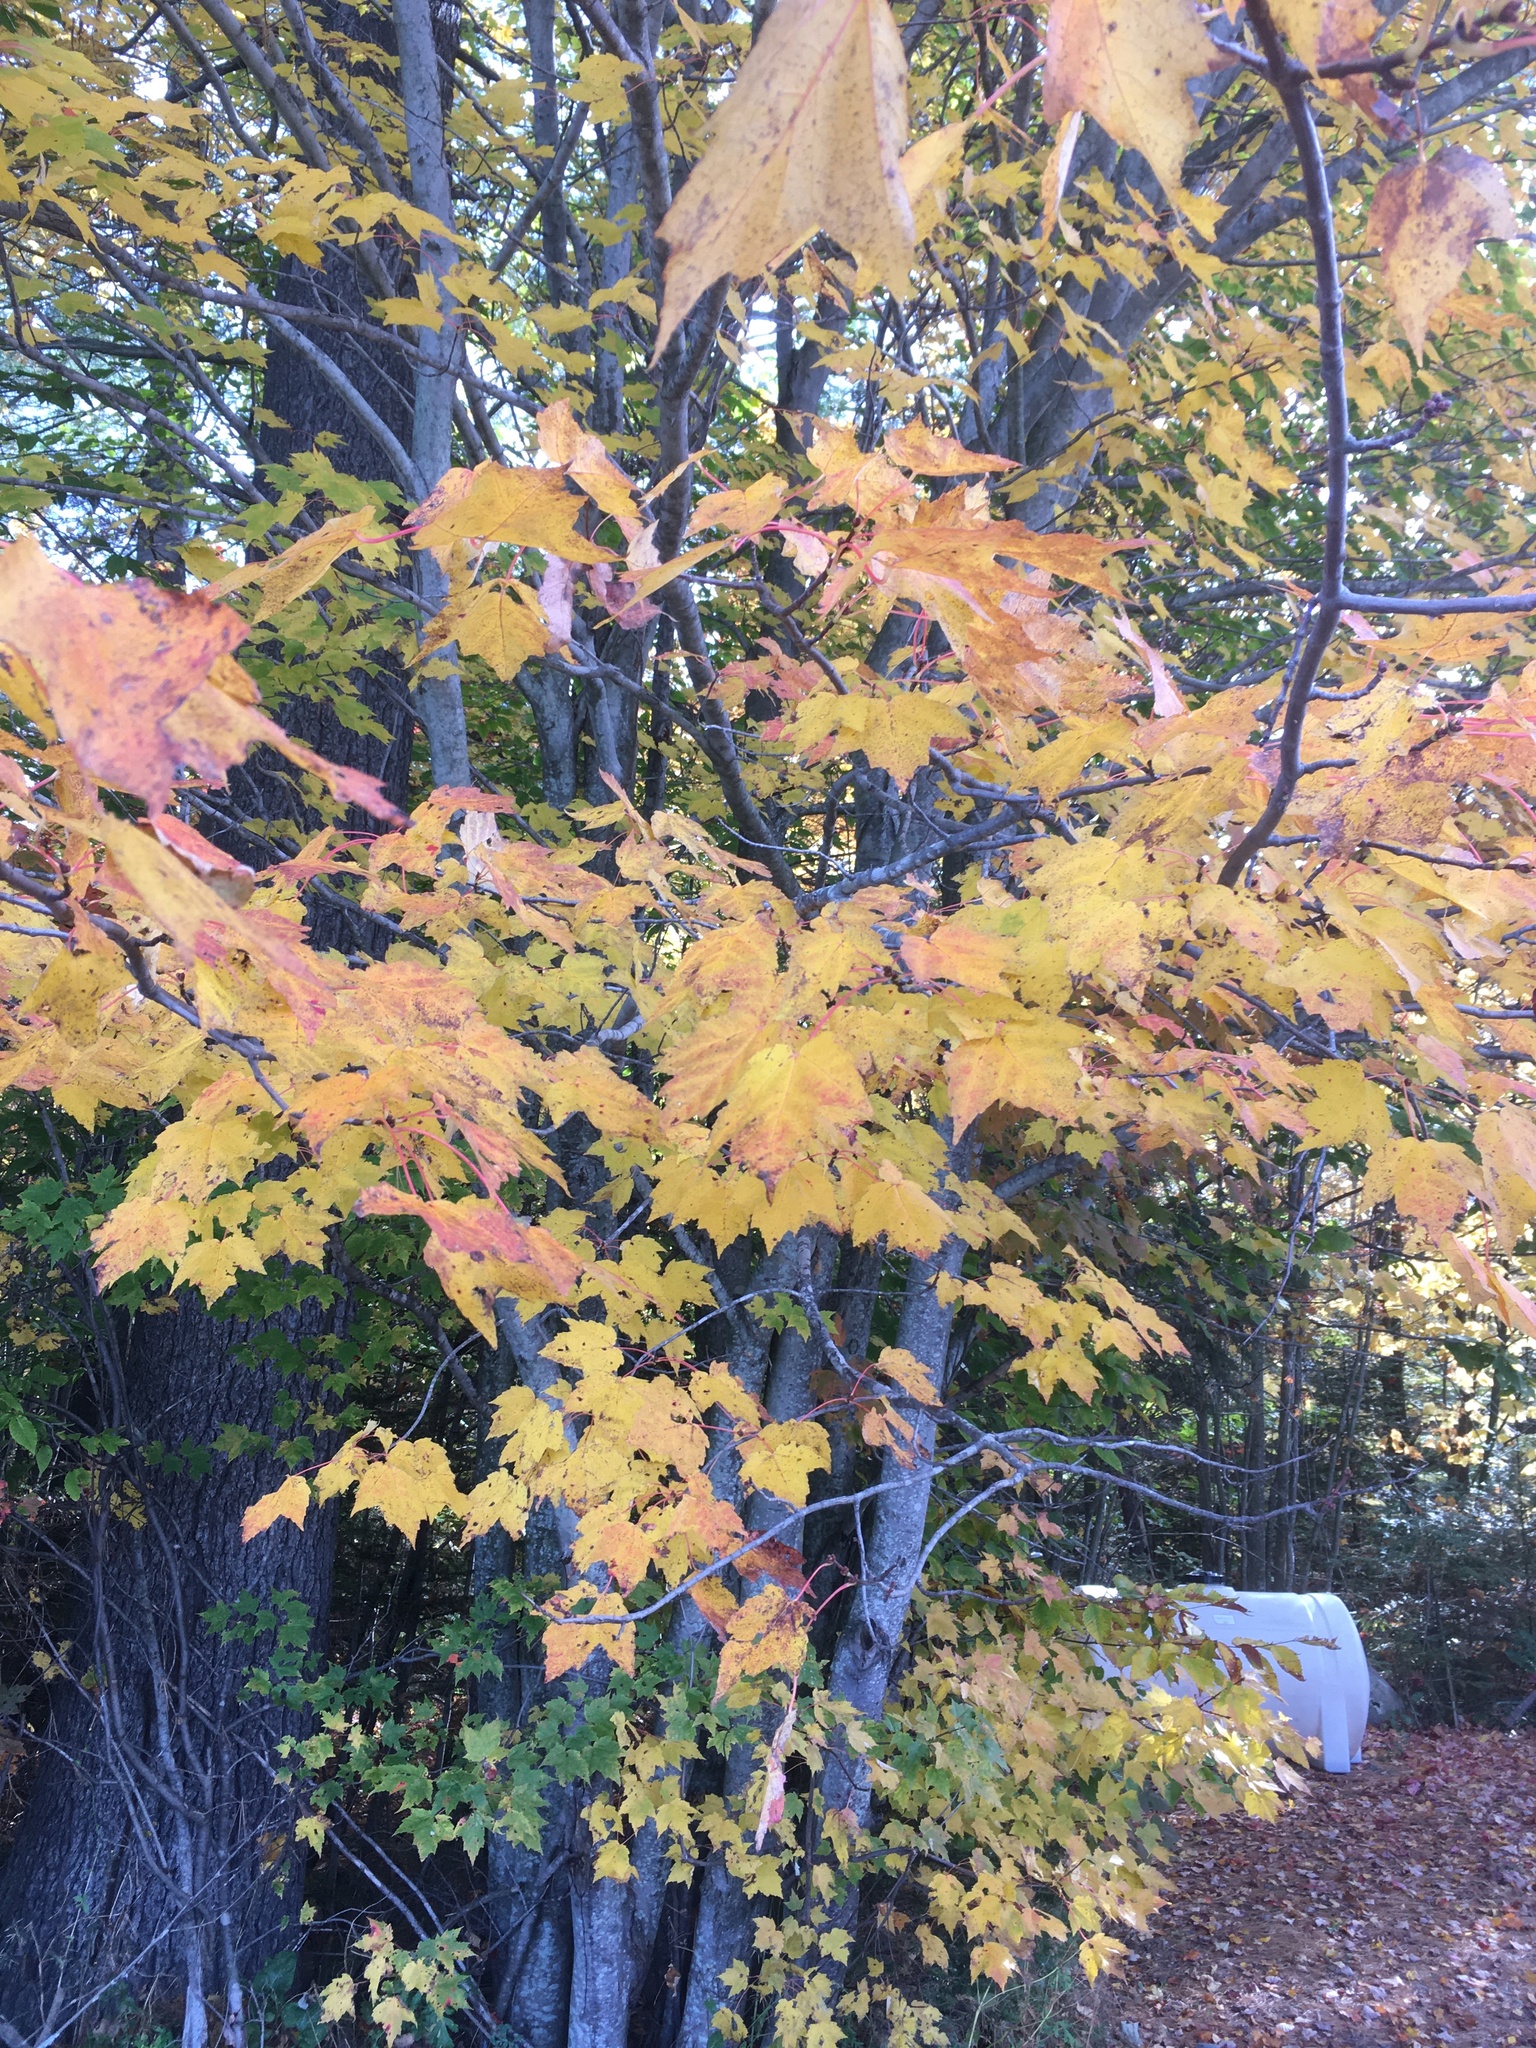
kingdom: Plantae
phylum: Tracheophyta
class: Magnoliopsida
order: Sapindales
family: Sapindaceae
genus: Acer
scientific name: Acer rubrum
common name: Red maple
